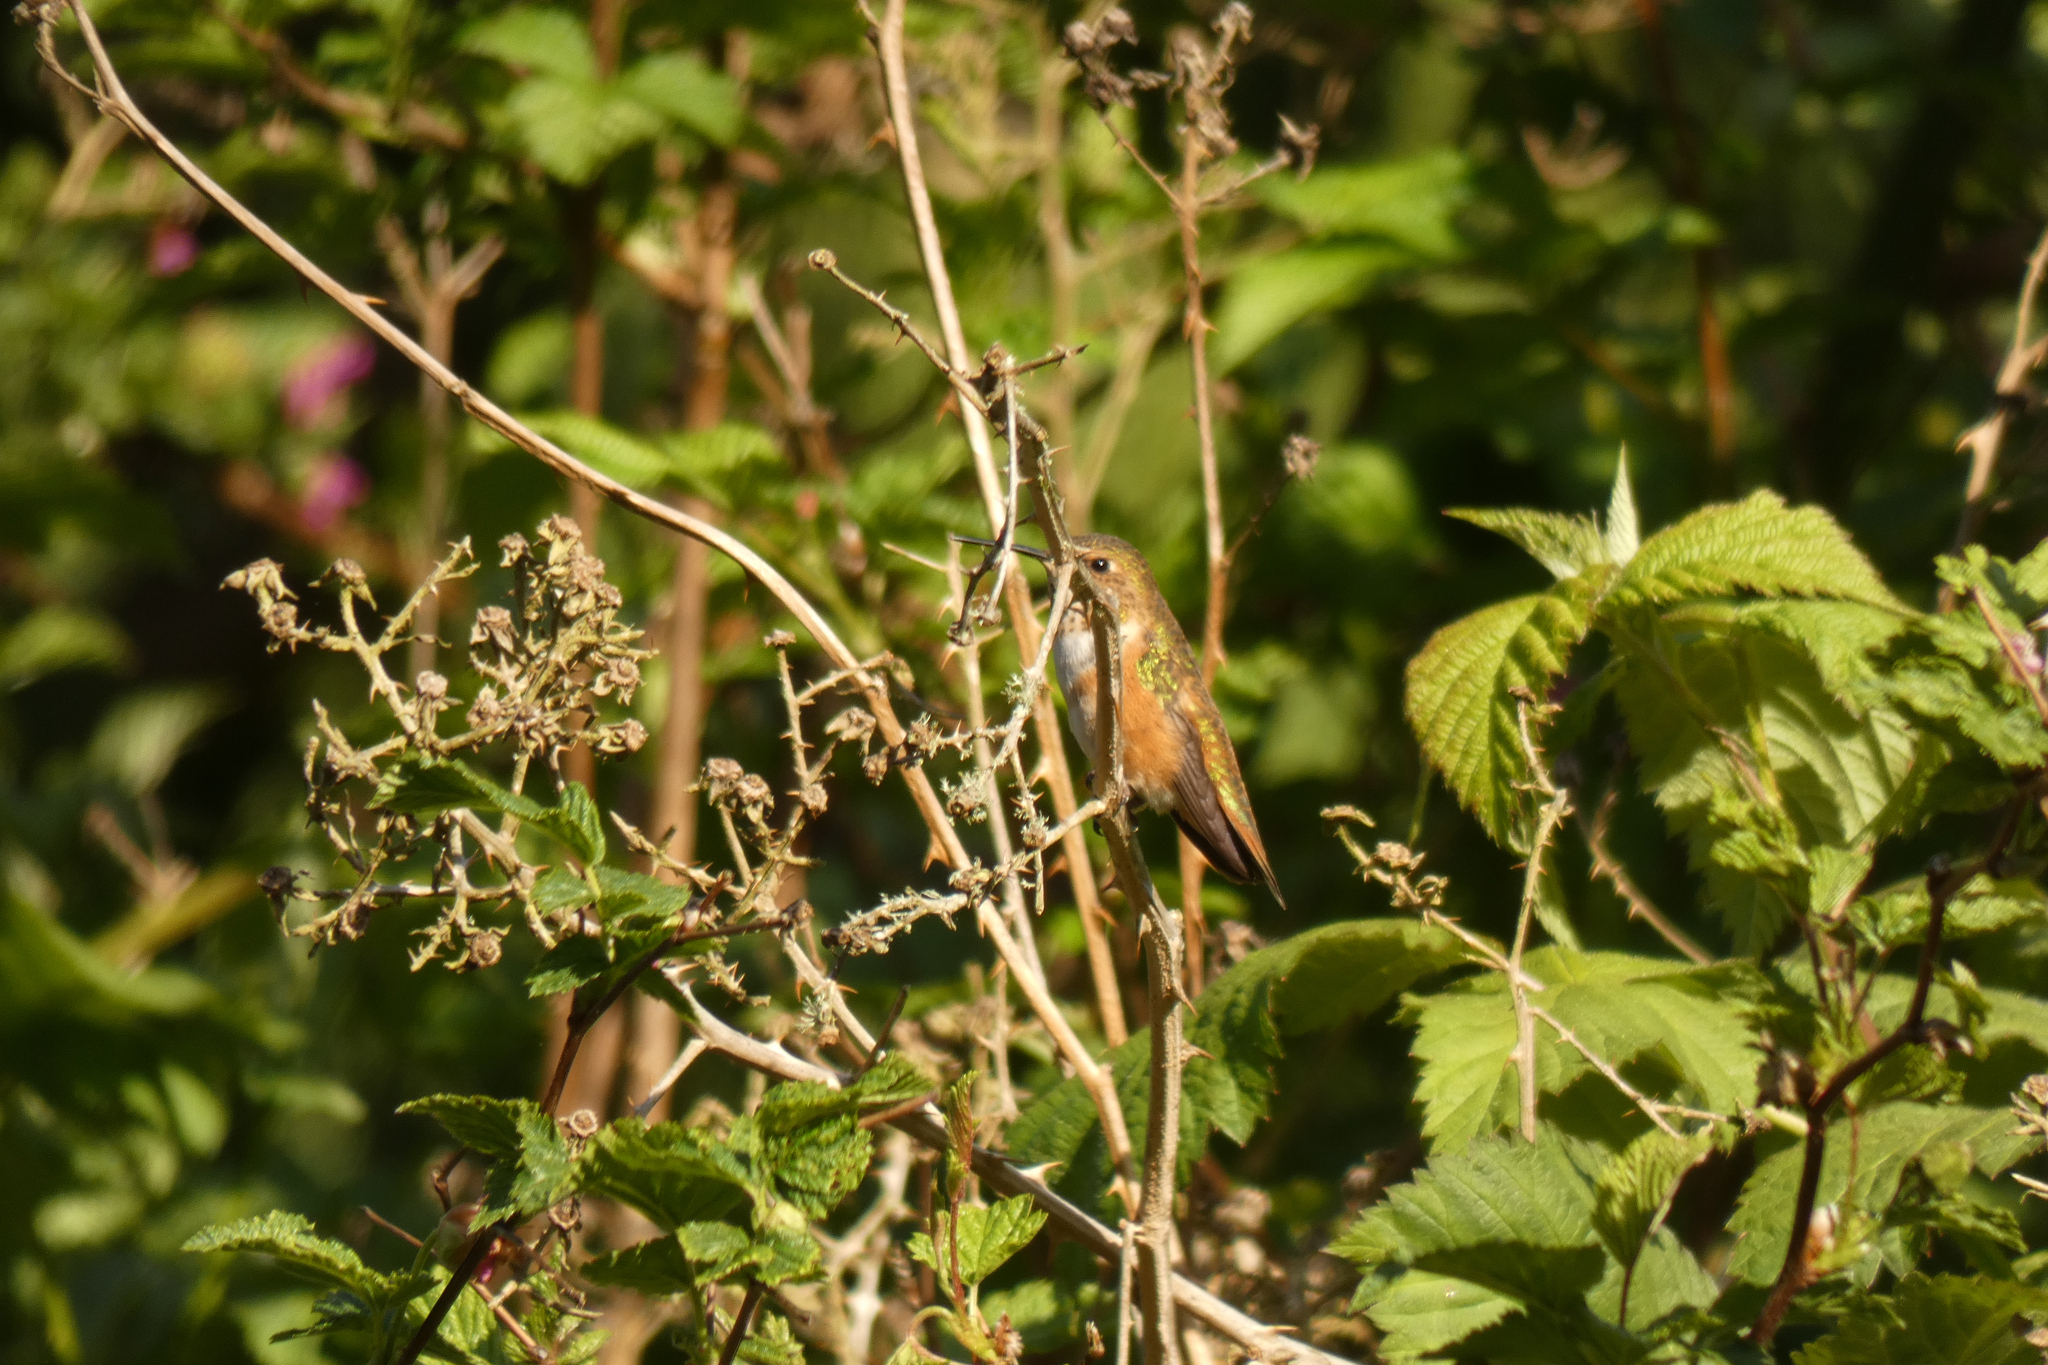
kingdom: Animalia
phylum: Chordata
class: Aves
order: Apodiformes
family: Trochilidae
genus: Selasphorus
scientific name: Selasphorus rufus
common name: Rufous hummingbird
